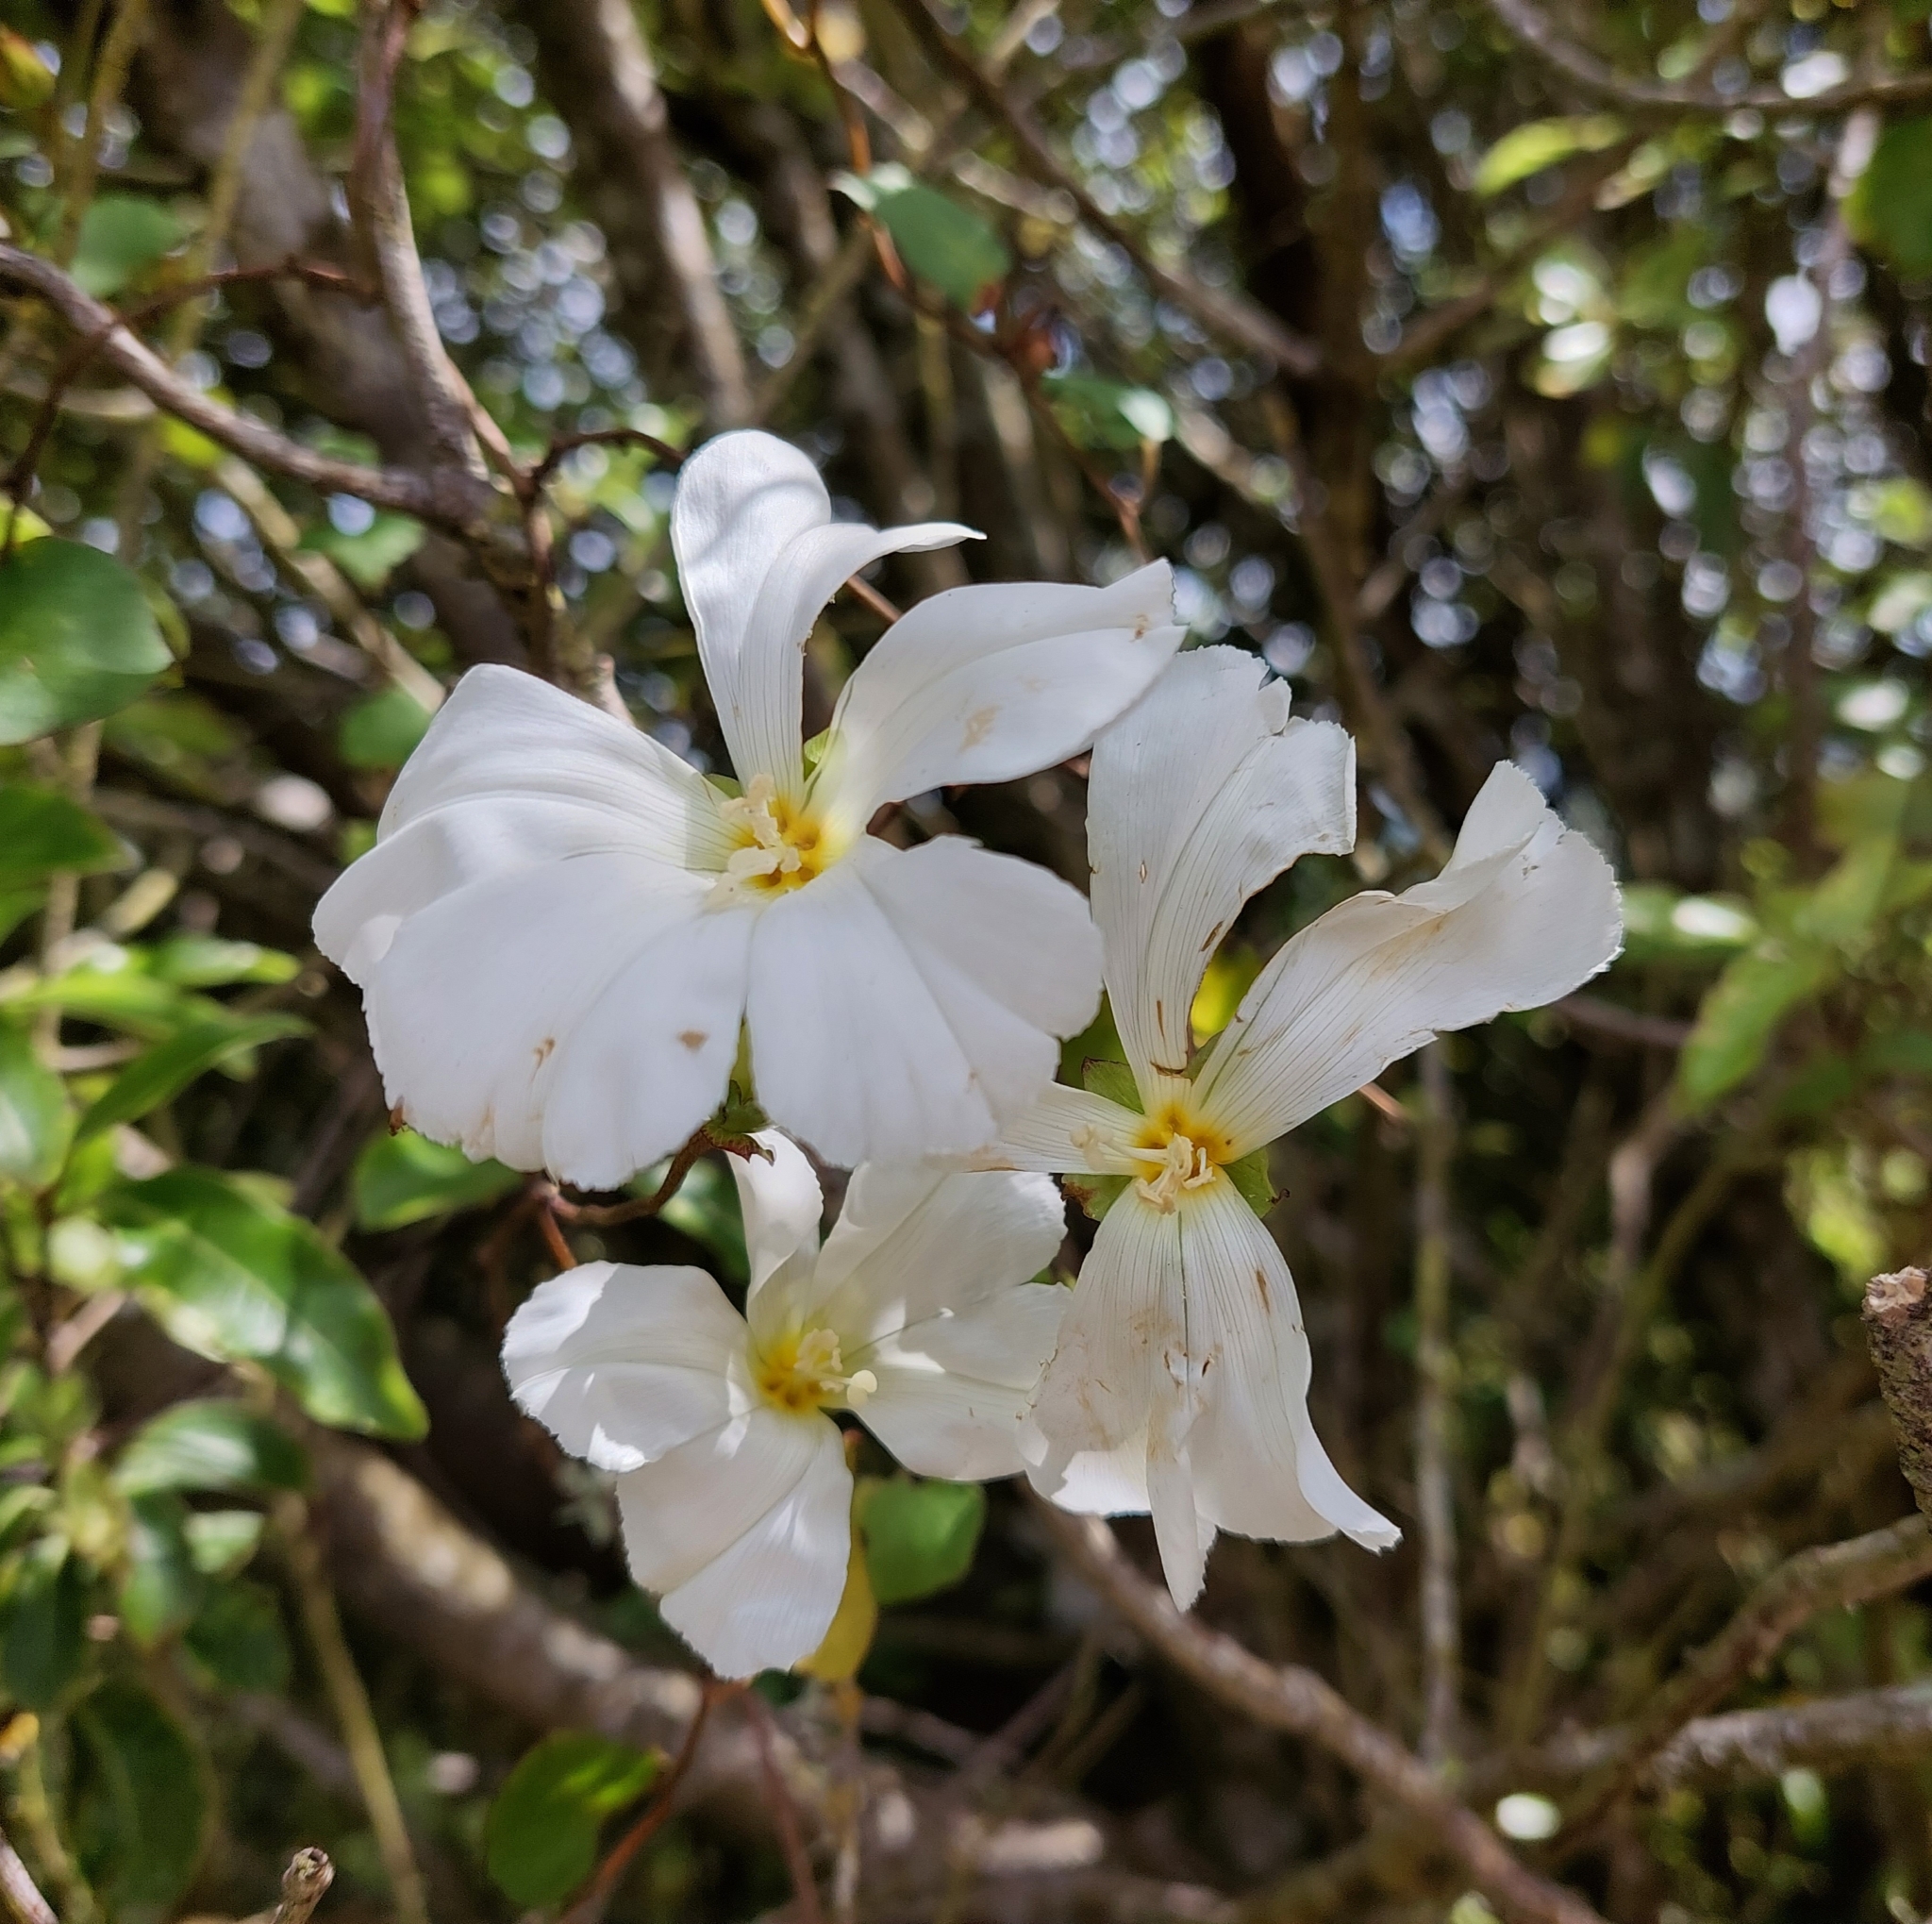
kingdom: Plantae
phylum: Tracheophyta
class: Magnoliopsida
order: Solanales
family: Convolvulaceae
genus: Calystegia
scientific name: Calystegia tuguriorum
